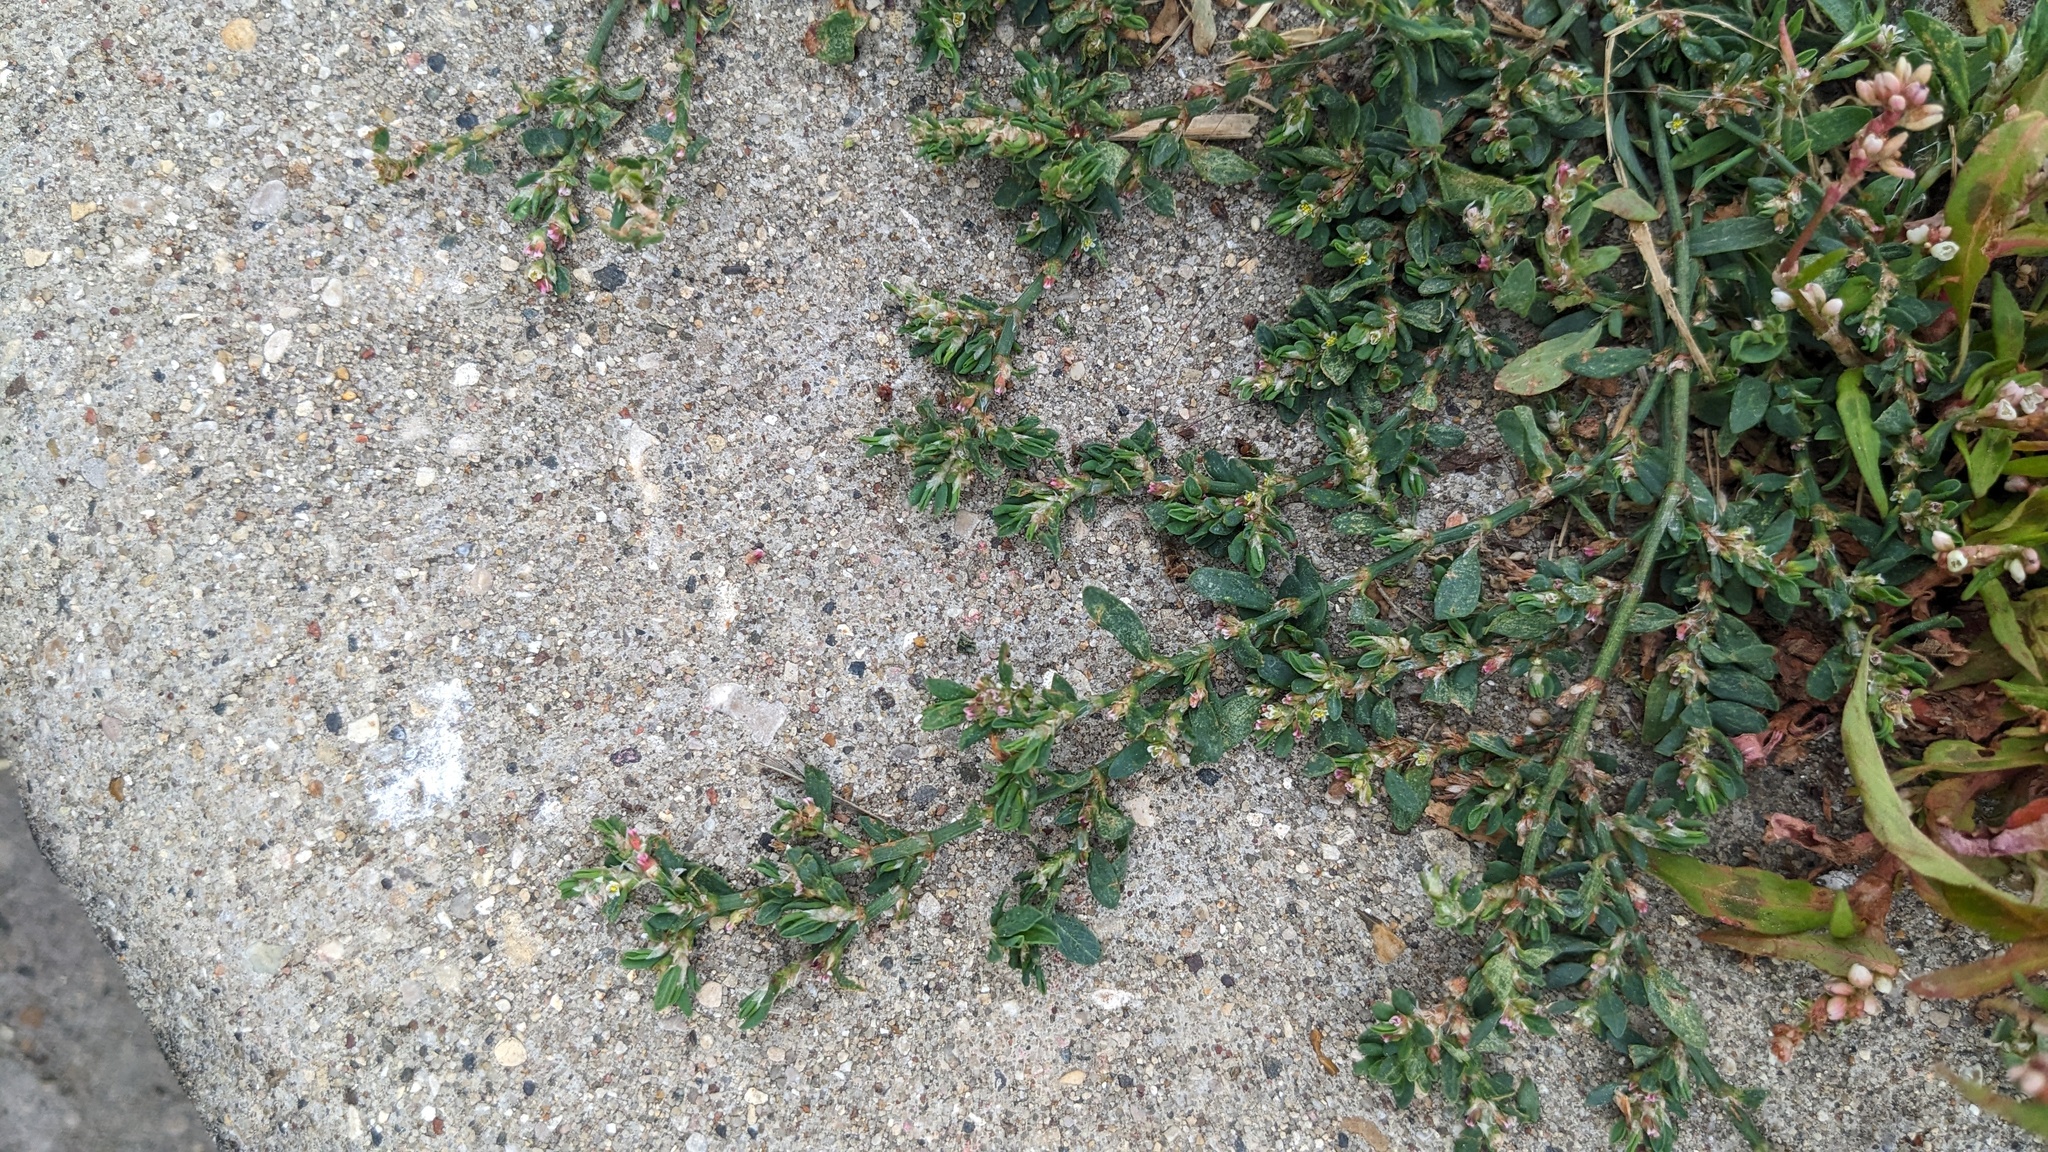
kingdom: Plantae
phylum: Tracheophyta
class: Magnoliopsida
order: Caryophyllales
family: Polygonaceae
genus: Polygonum
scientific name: Polygonum aviculare
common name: Prostrate knotweed
